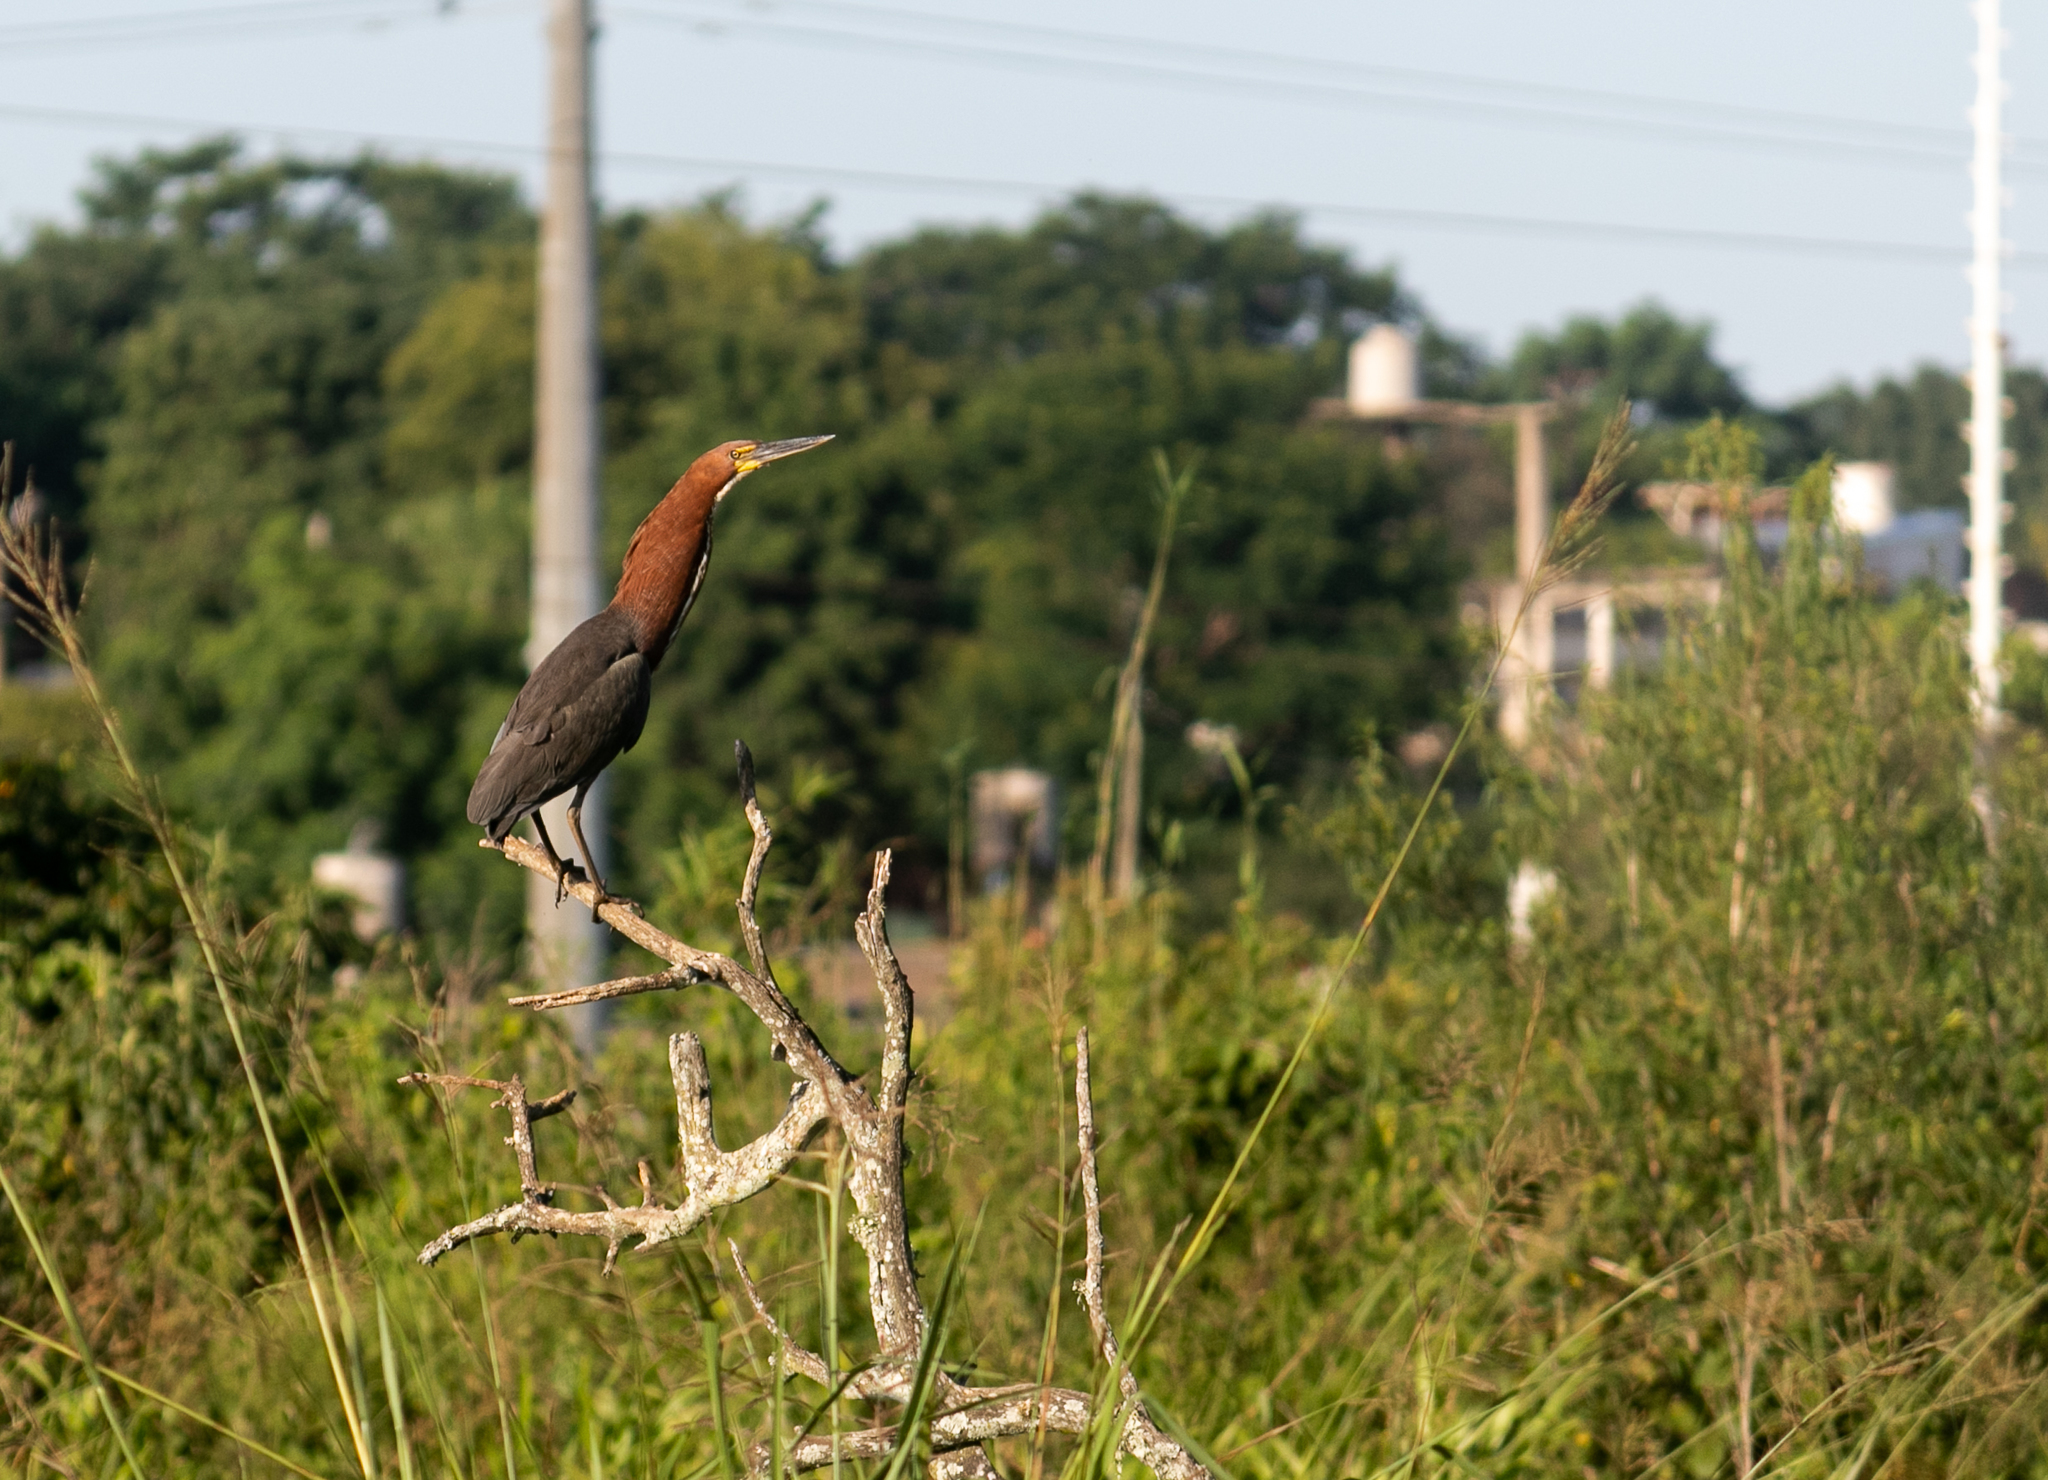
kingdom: Animalia
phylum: Chordata
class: Aves
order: Pelecaniformes
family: Ardeidae
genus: Tigrisoma
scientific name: Tigrisoma lineatum
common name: Rufescent tiger-heron
